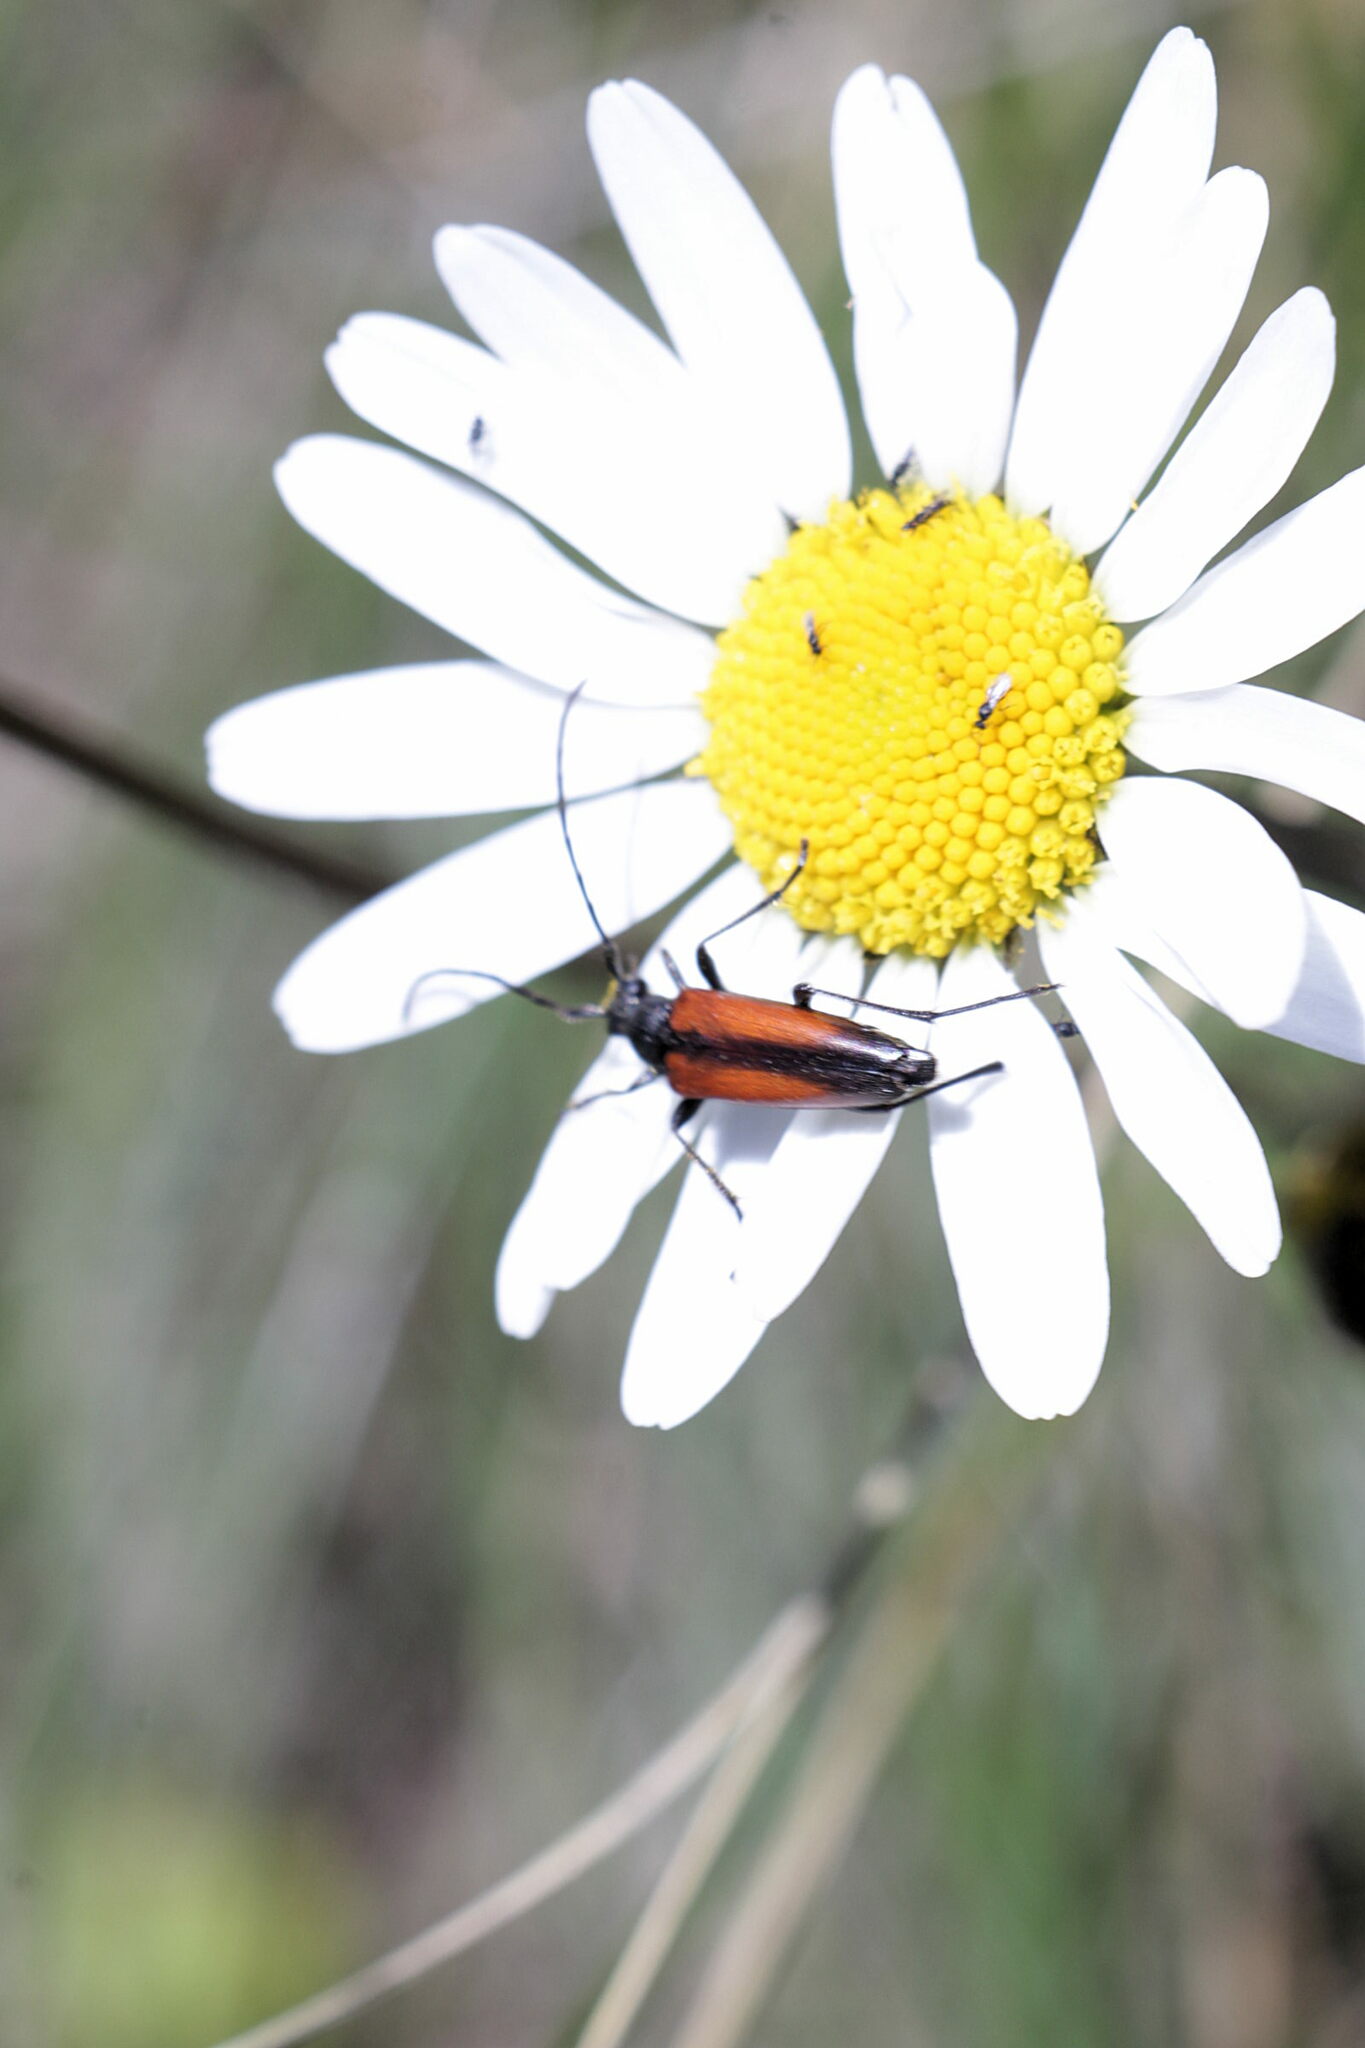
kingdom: Animalia
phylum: Arthropoda
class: Insecta
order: Coleoptera
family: Cerambycidae
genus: Stenurella
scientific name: Stenurella melanura
